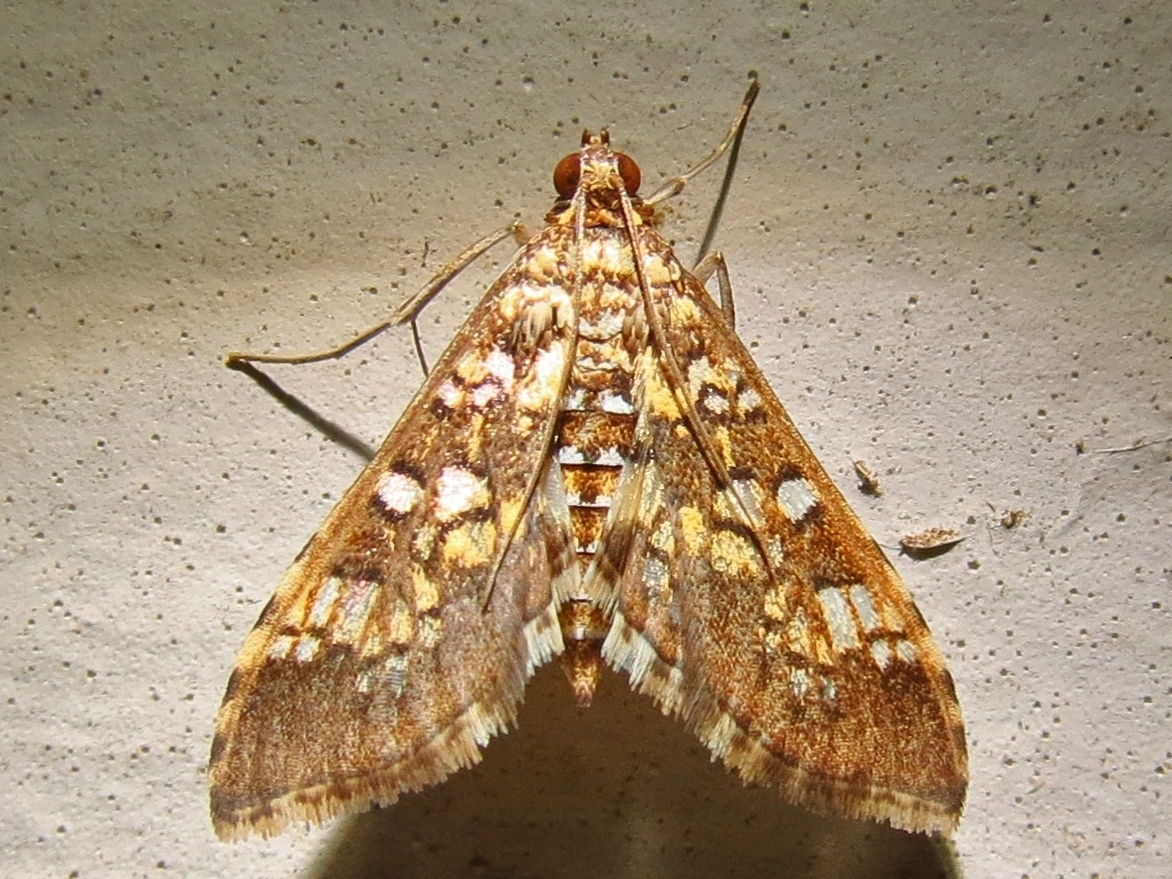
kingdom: Animalia
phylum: Arthropoda
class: Insecta
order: Lepidoptera
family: Crambidae
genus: Samea
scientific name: Samea ecclesialis
